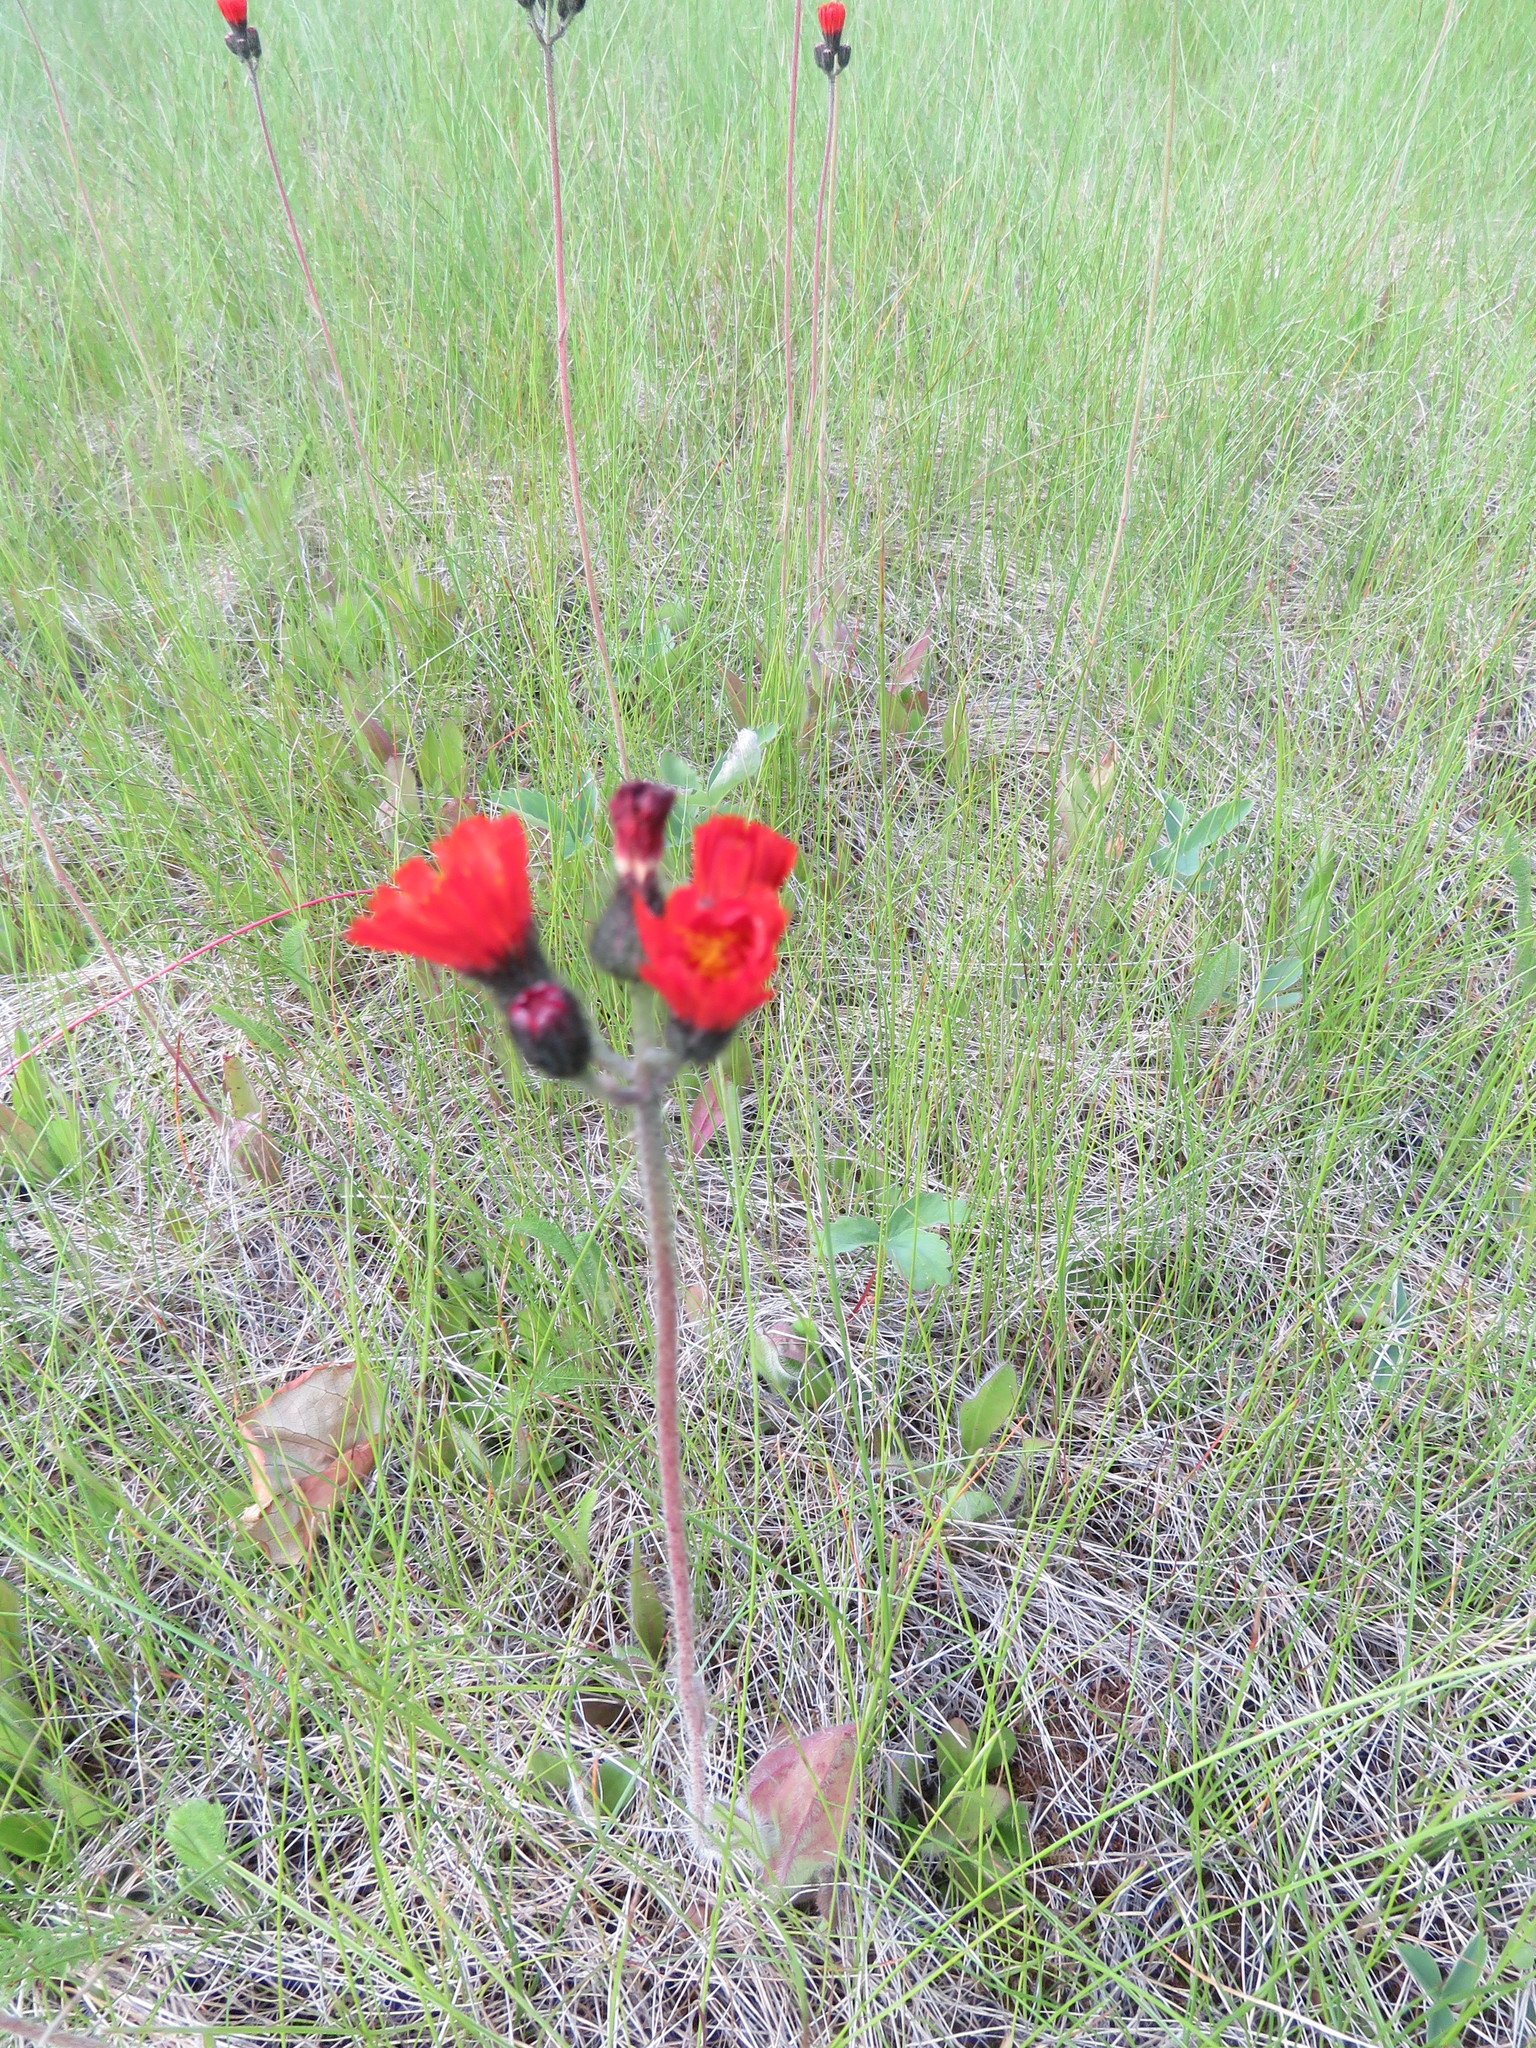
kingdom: Plantae
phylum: Tracheophyta
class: Magnoliopsida
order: Asterales
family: Asteraceae
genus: Pilosella
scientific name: Pilosella aurantiaca
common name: Fox-and-cubs
